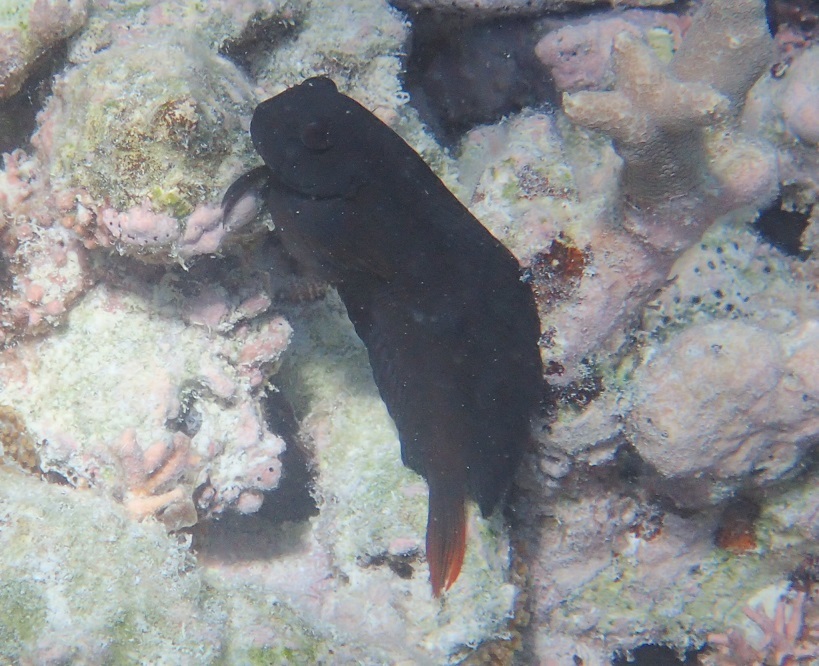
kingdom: Animalia
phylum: Chordata
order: Perciformes
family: Blenniidae
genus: Atrosalarias
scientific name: Atrosalarias holomelas
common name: Brown coral blenny
